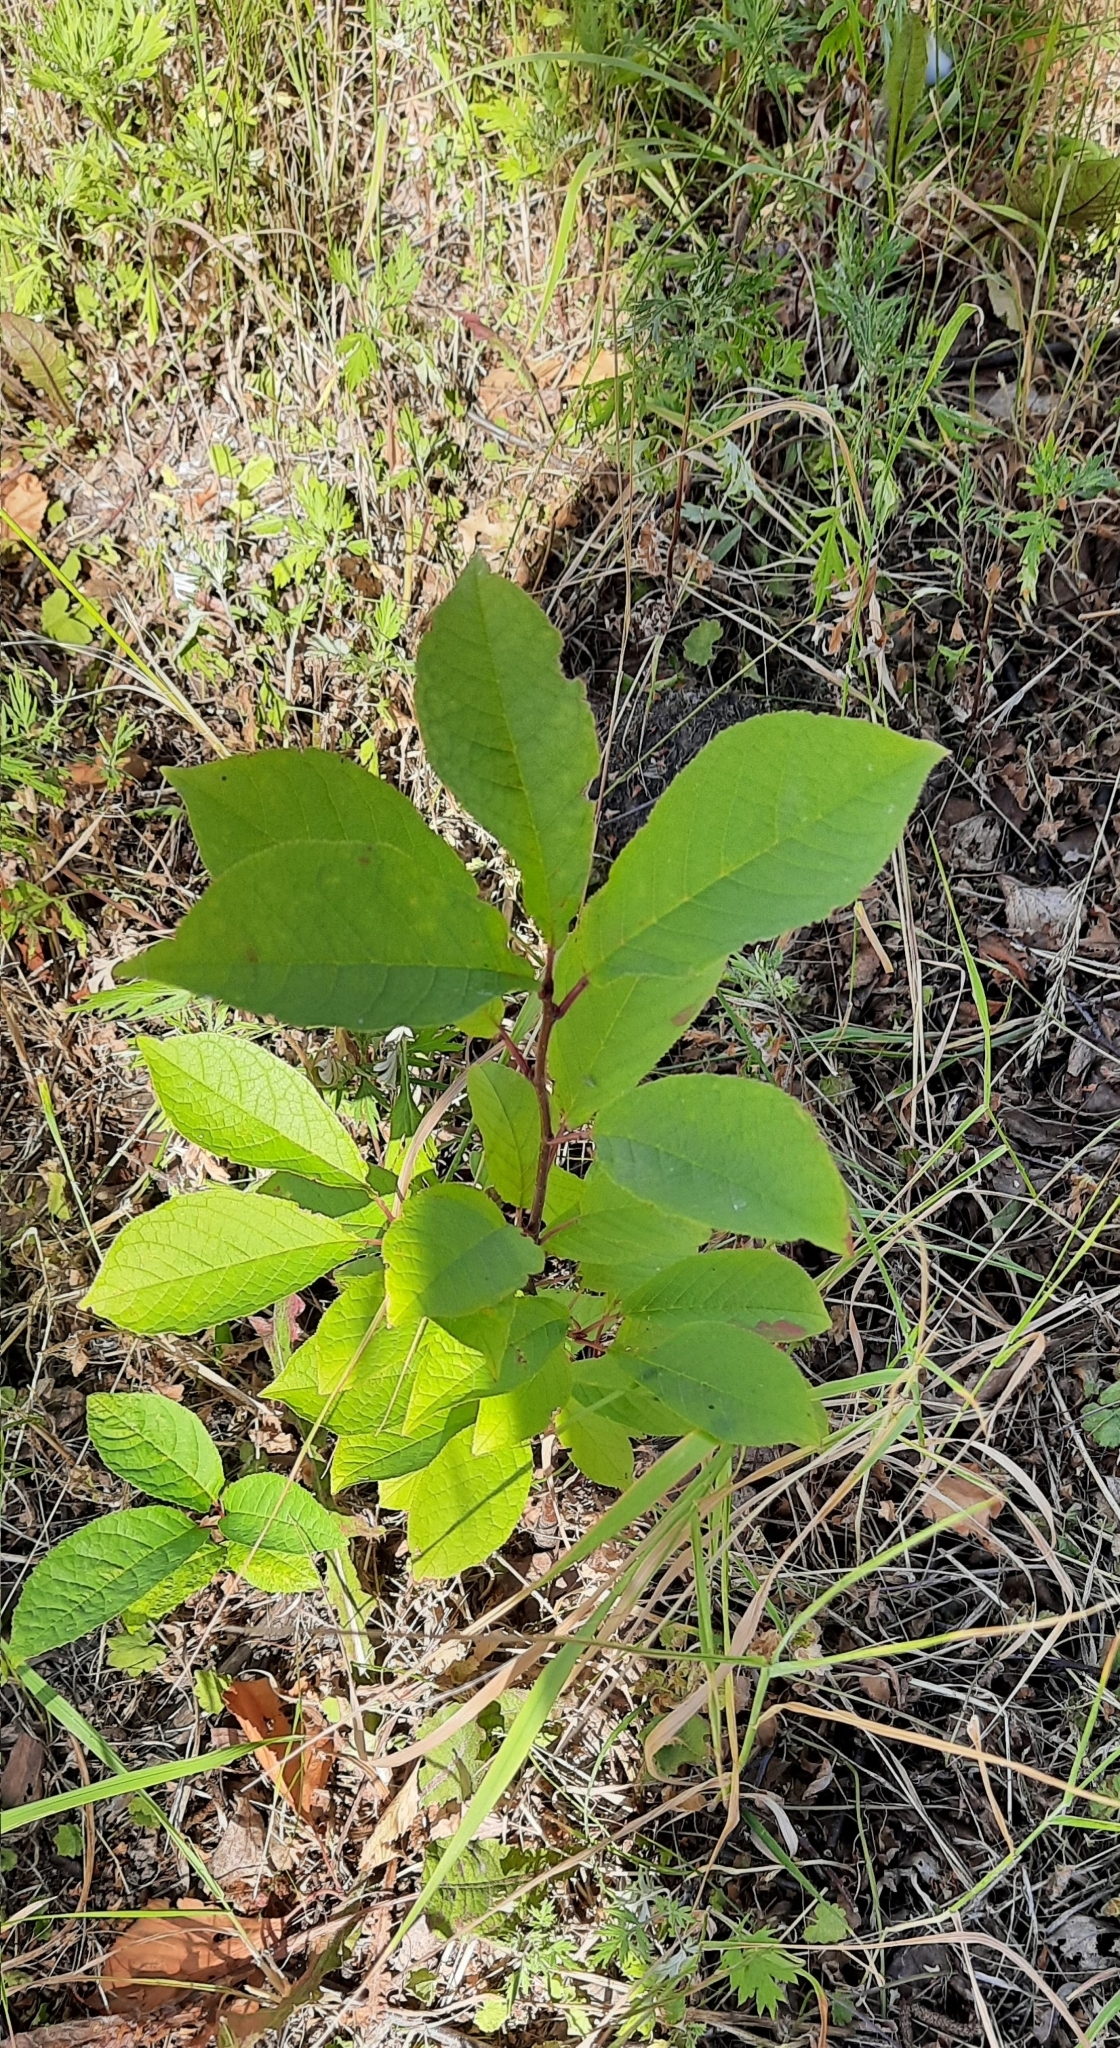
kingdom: Plantae
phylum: Tracheophyta
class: Magnoliopsida
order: Rosales
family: Rosaceae
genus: Prunus
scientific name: Prunus padus
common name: Bird cherry
